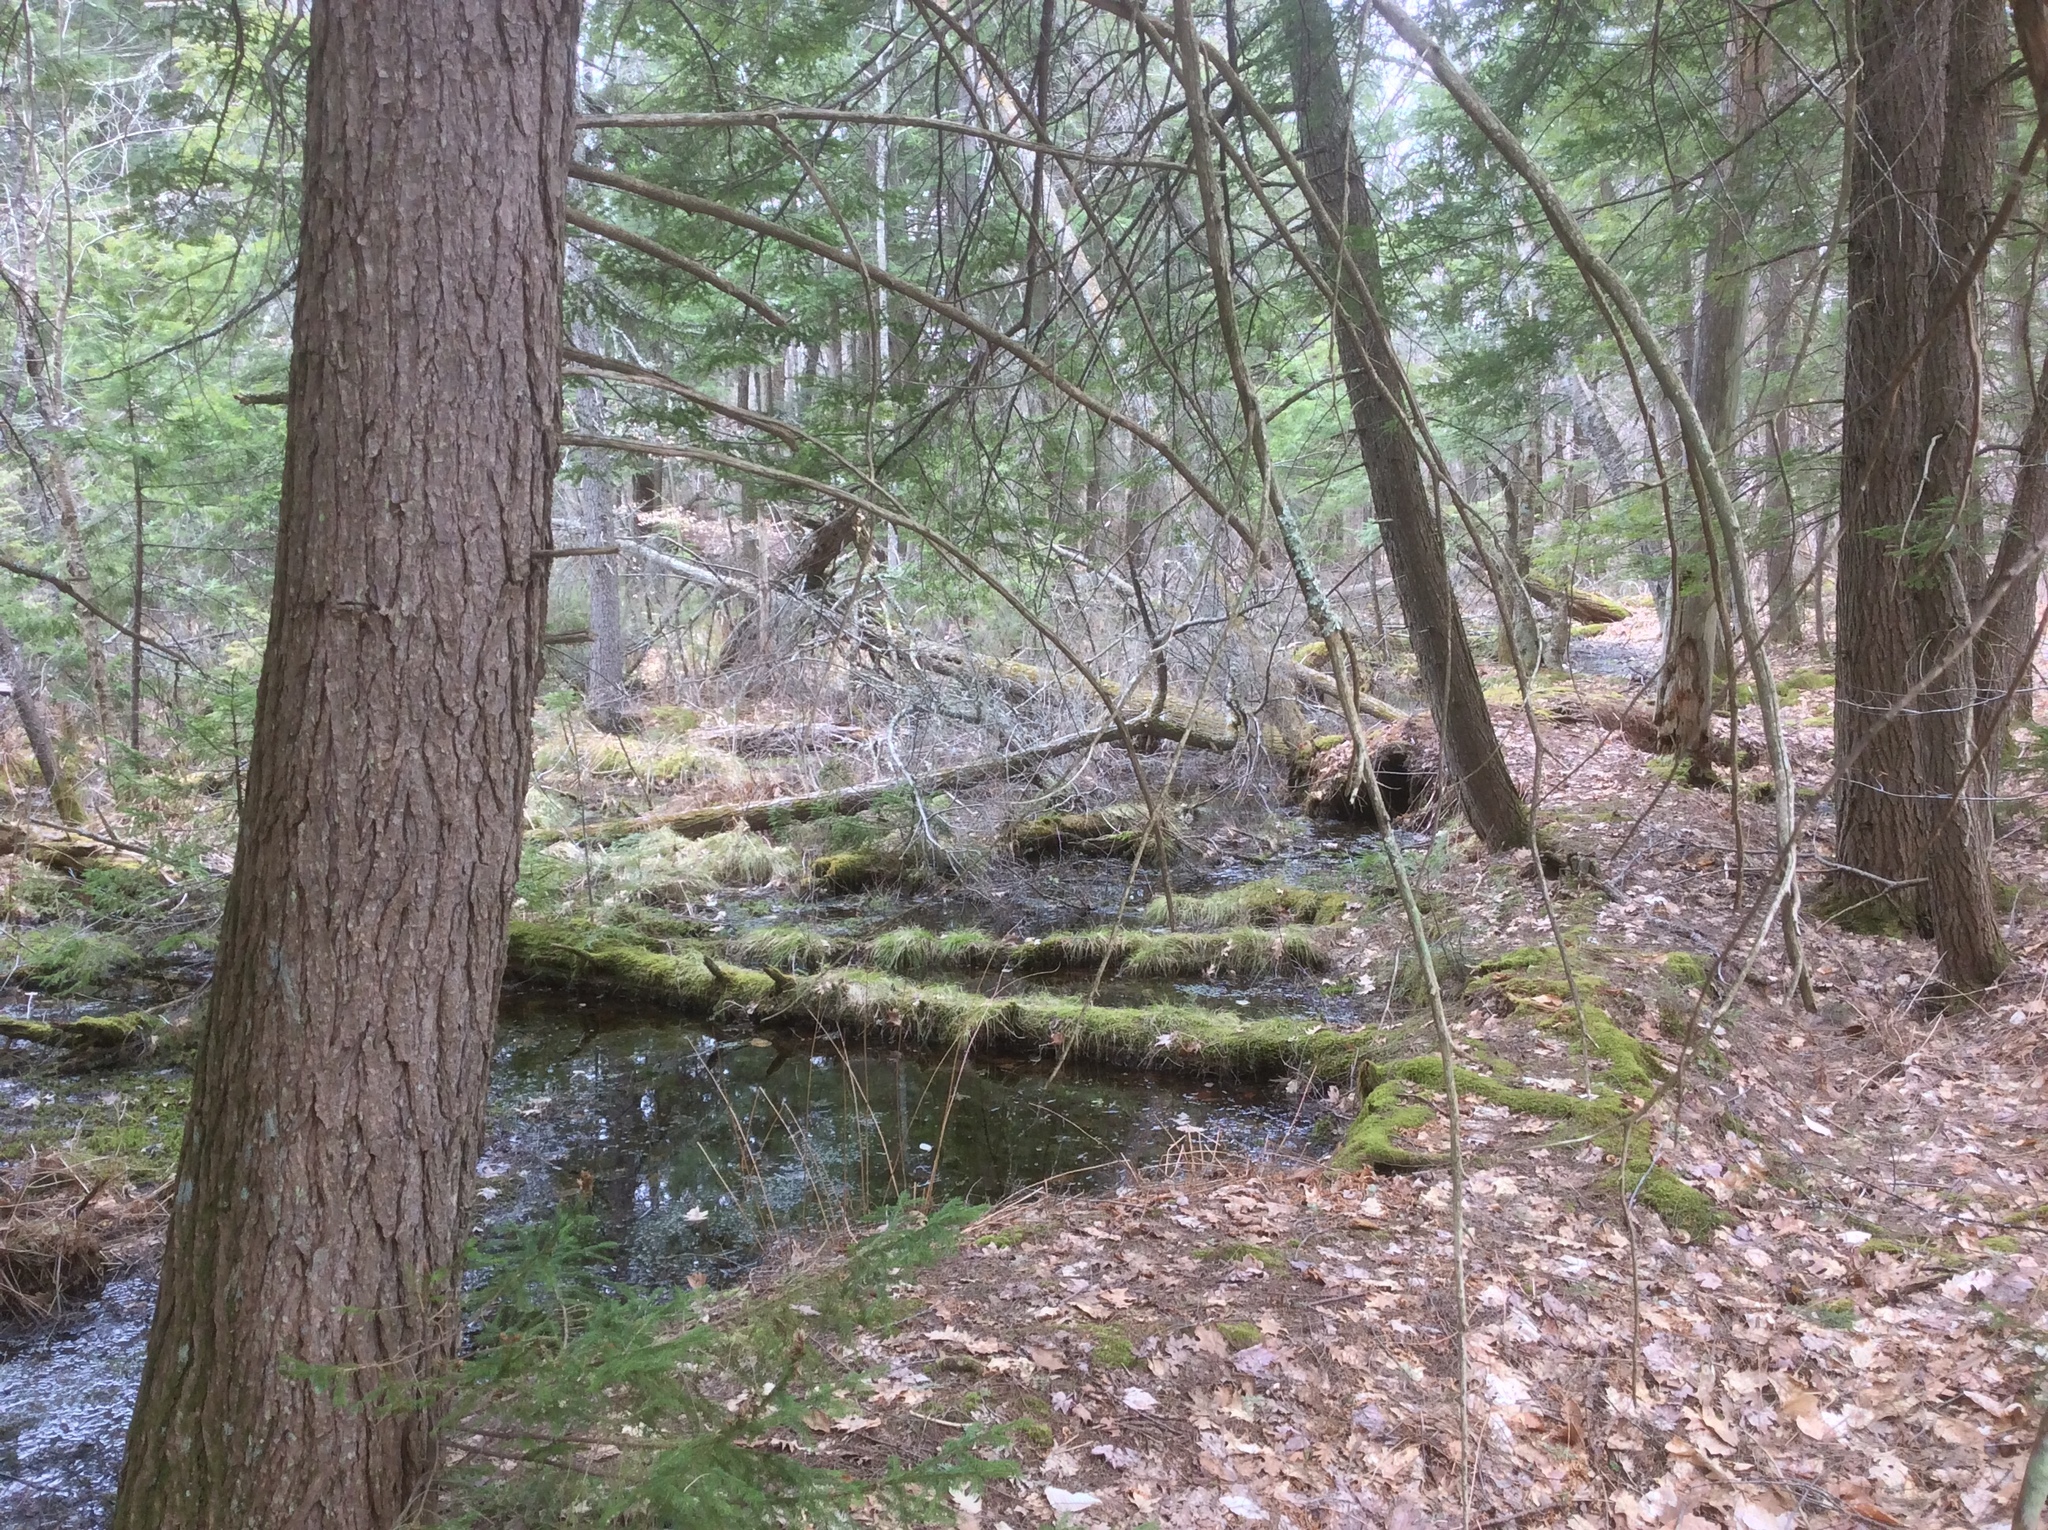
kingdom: Plantae
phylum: Tracheophyta
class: Pinopsida
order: Pinales
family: Pinaceae
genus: Tsuga
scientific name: Tsuga canadensis
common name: Eastern hemlock
